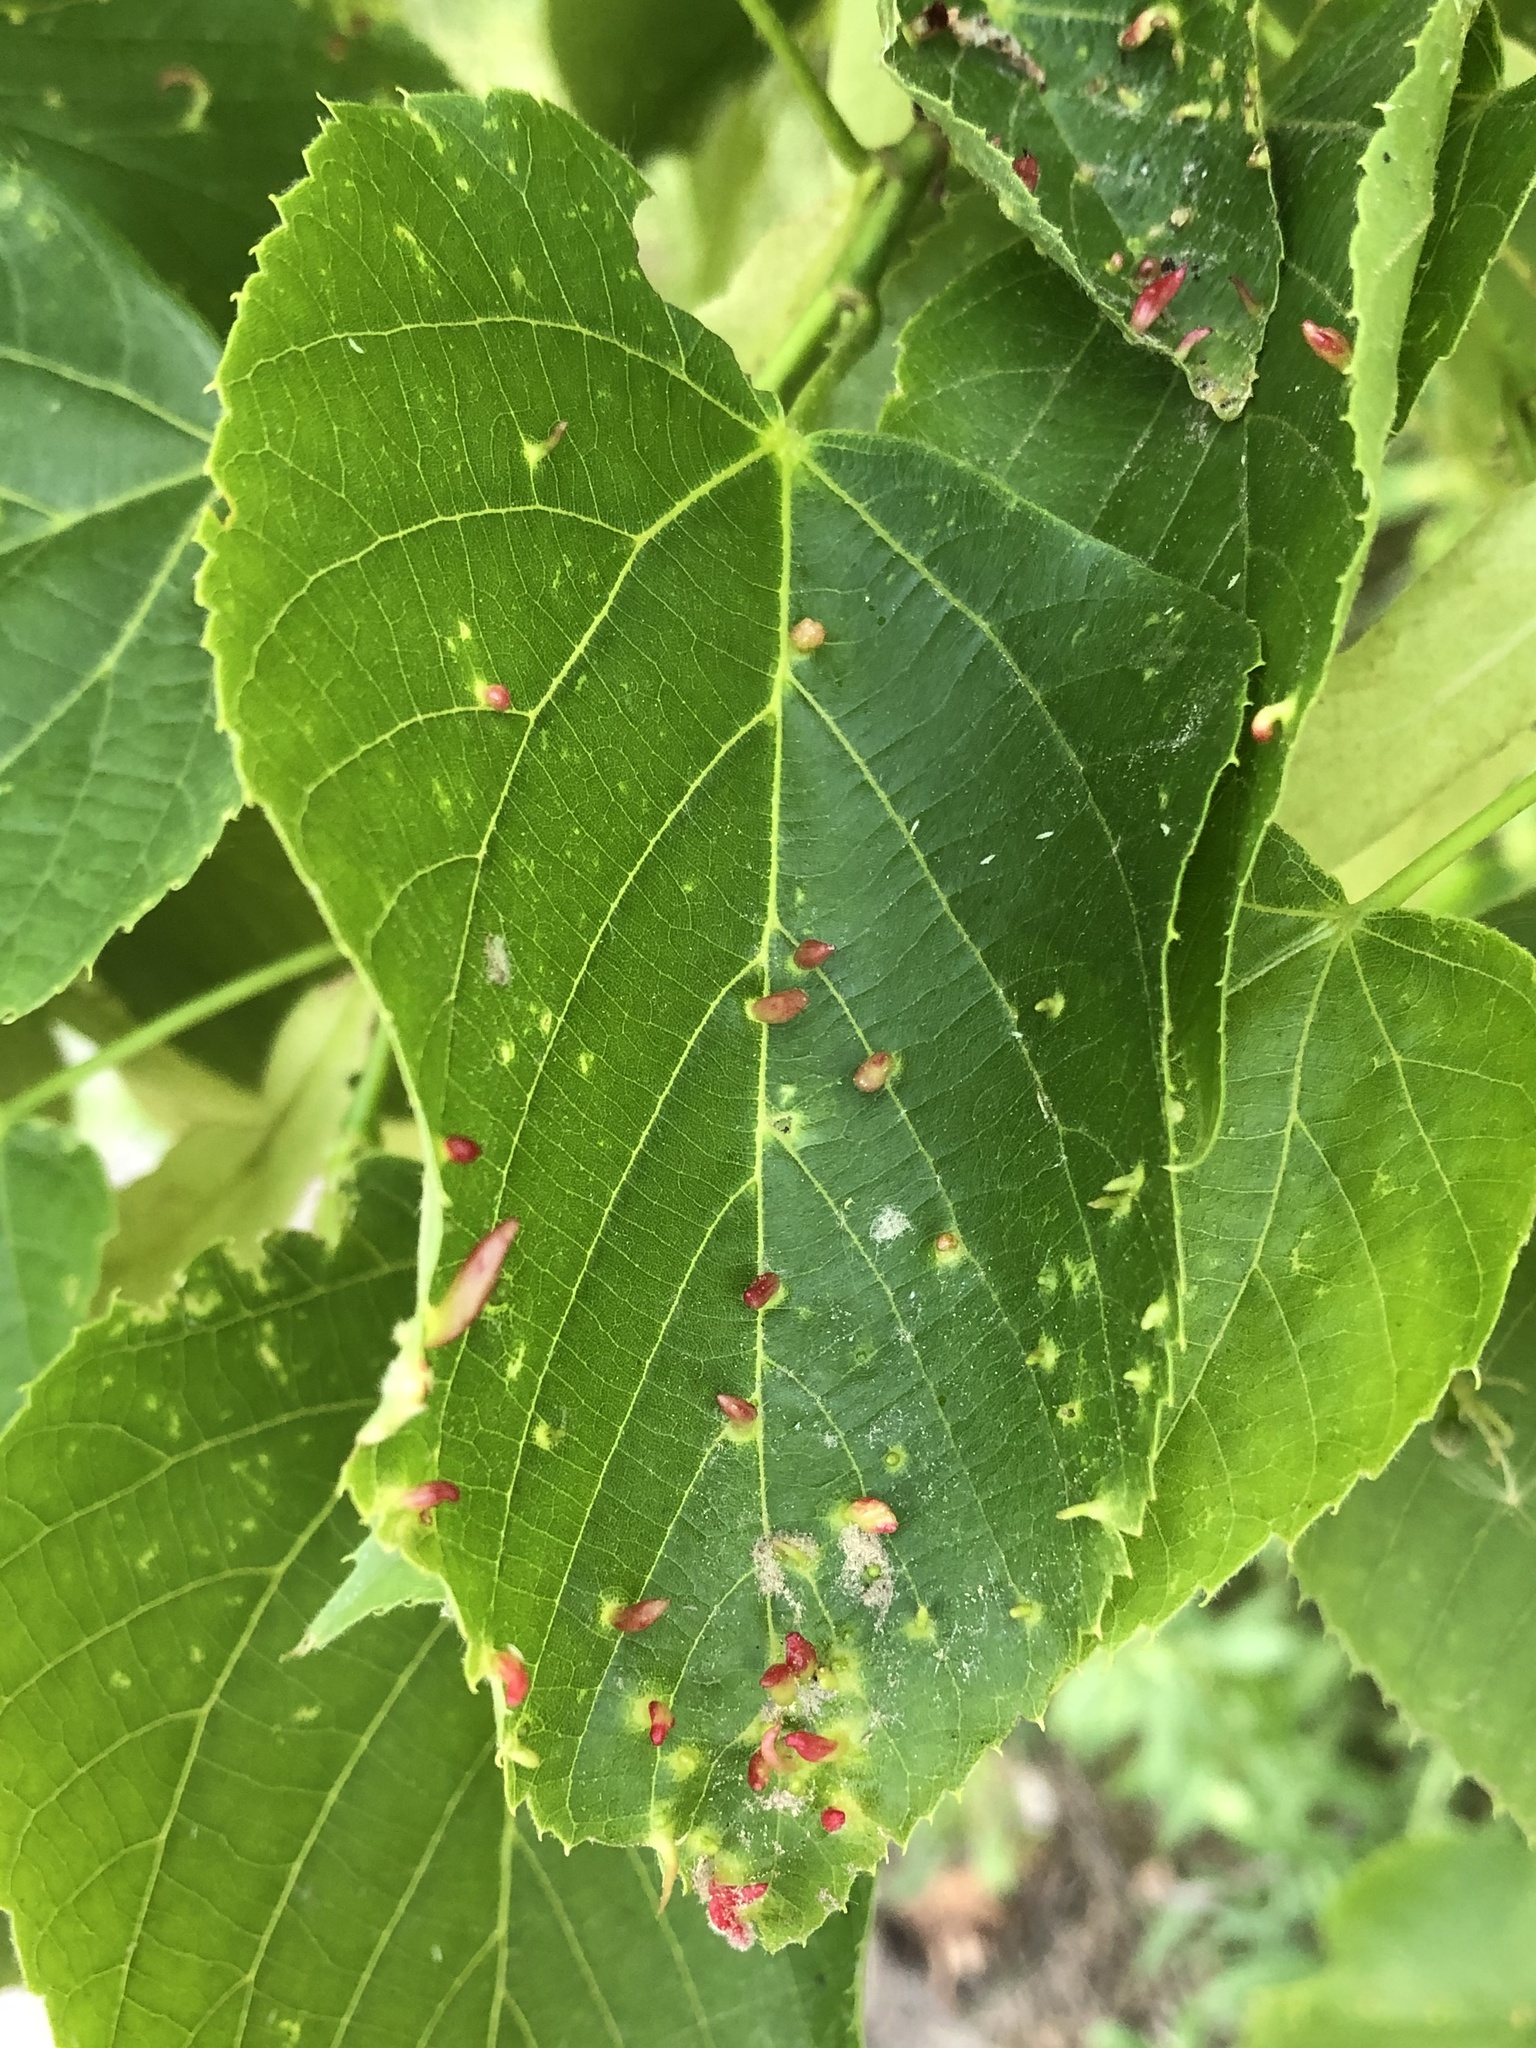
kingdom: Animalia
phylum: Arthropoda
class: Arachnida
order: Trombidiformes
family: Eriophyidae
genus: Eriophyes
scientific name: Eriophyes tiliae
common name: Red nail gall mite
